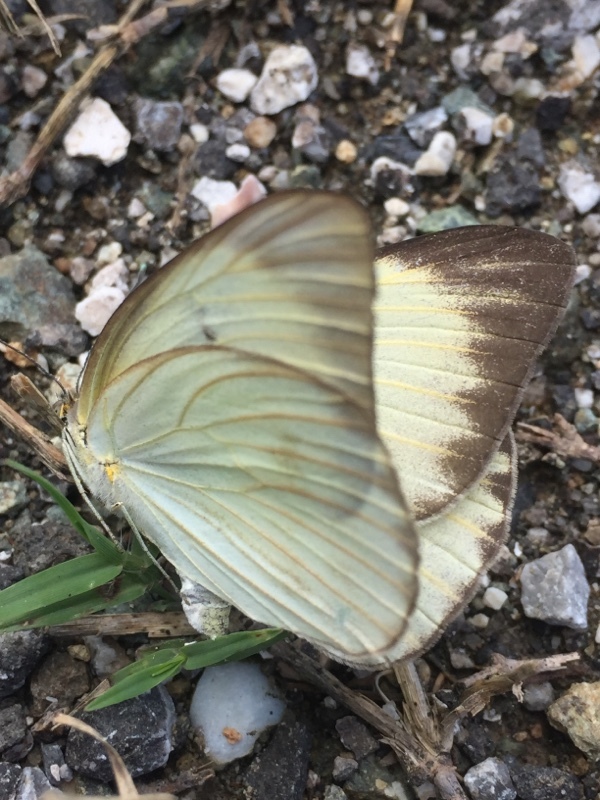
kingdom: Animalia
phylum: Arthropoda
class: Insecta
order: Lepidoptera
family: Pieridae
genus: Ascia
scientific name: Ascia monuste
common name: Great southern white
